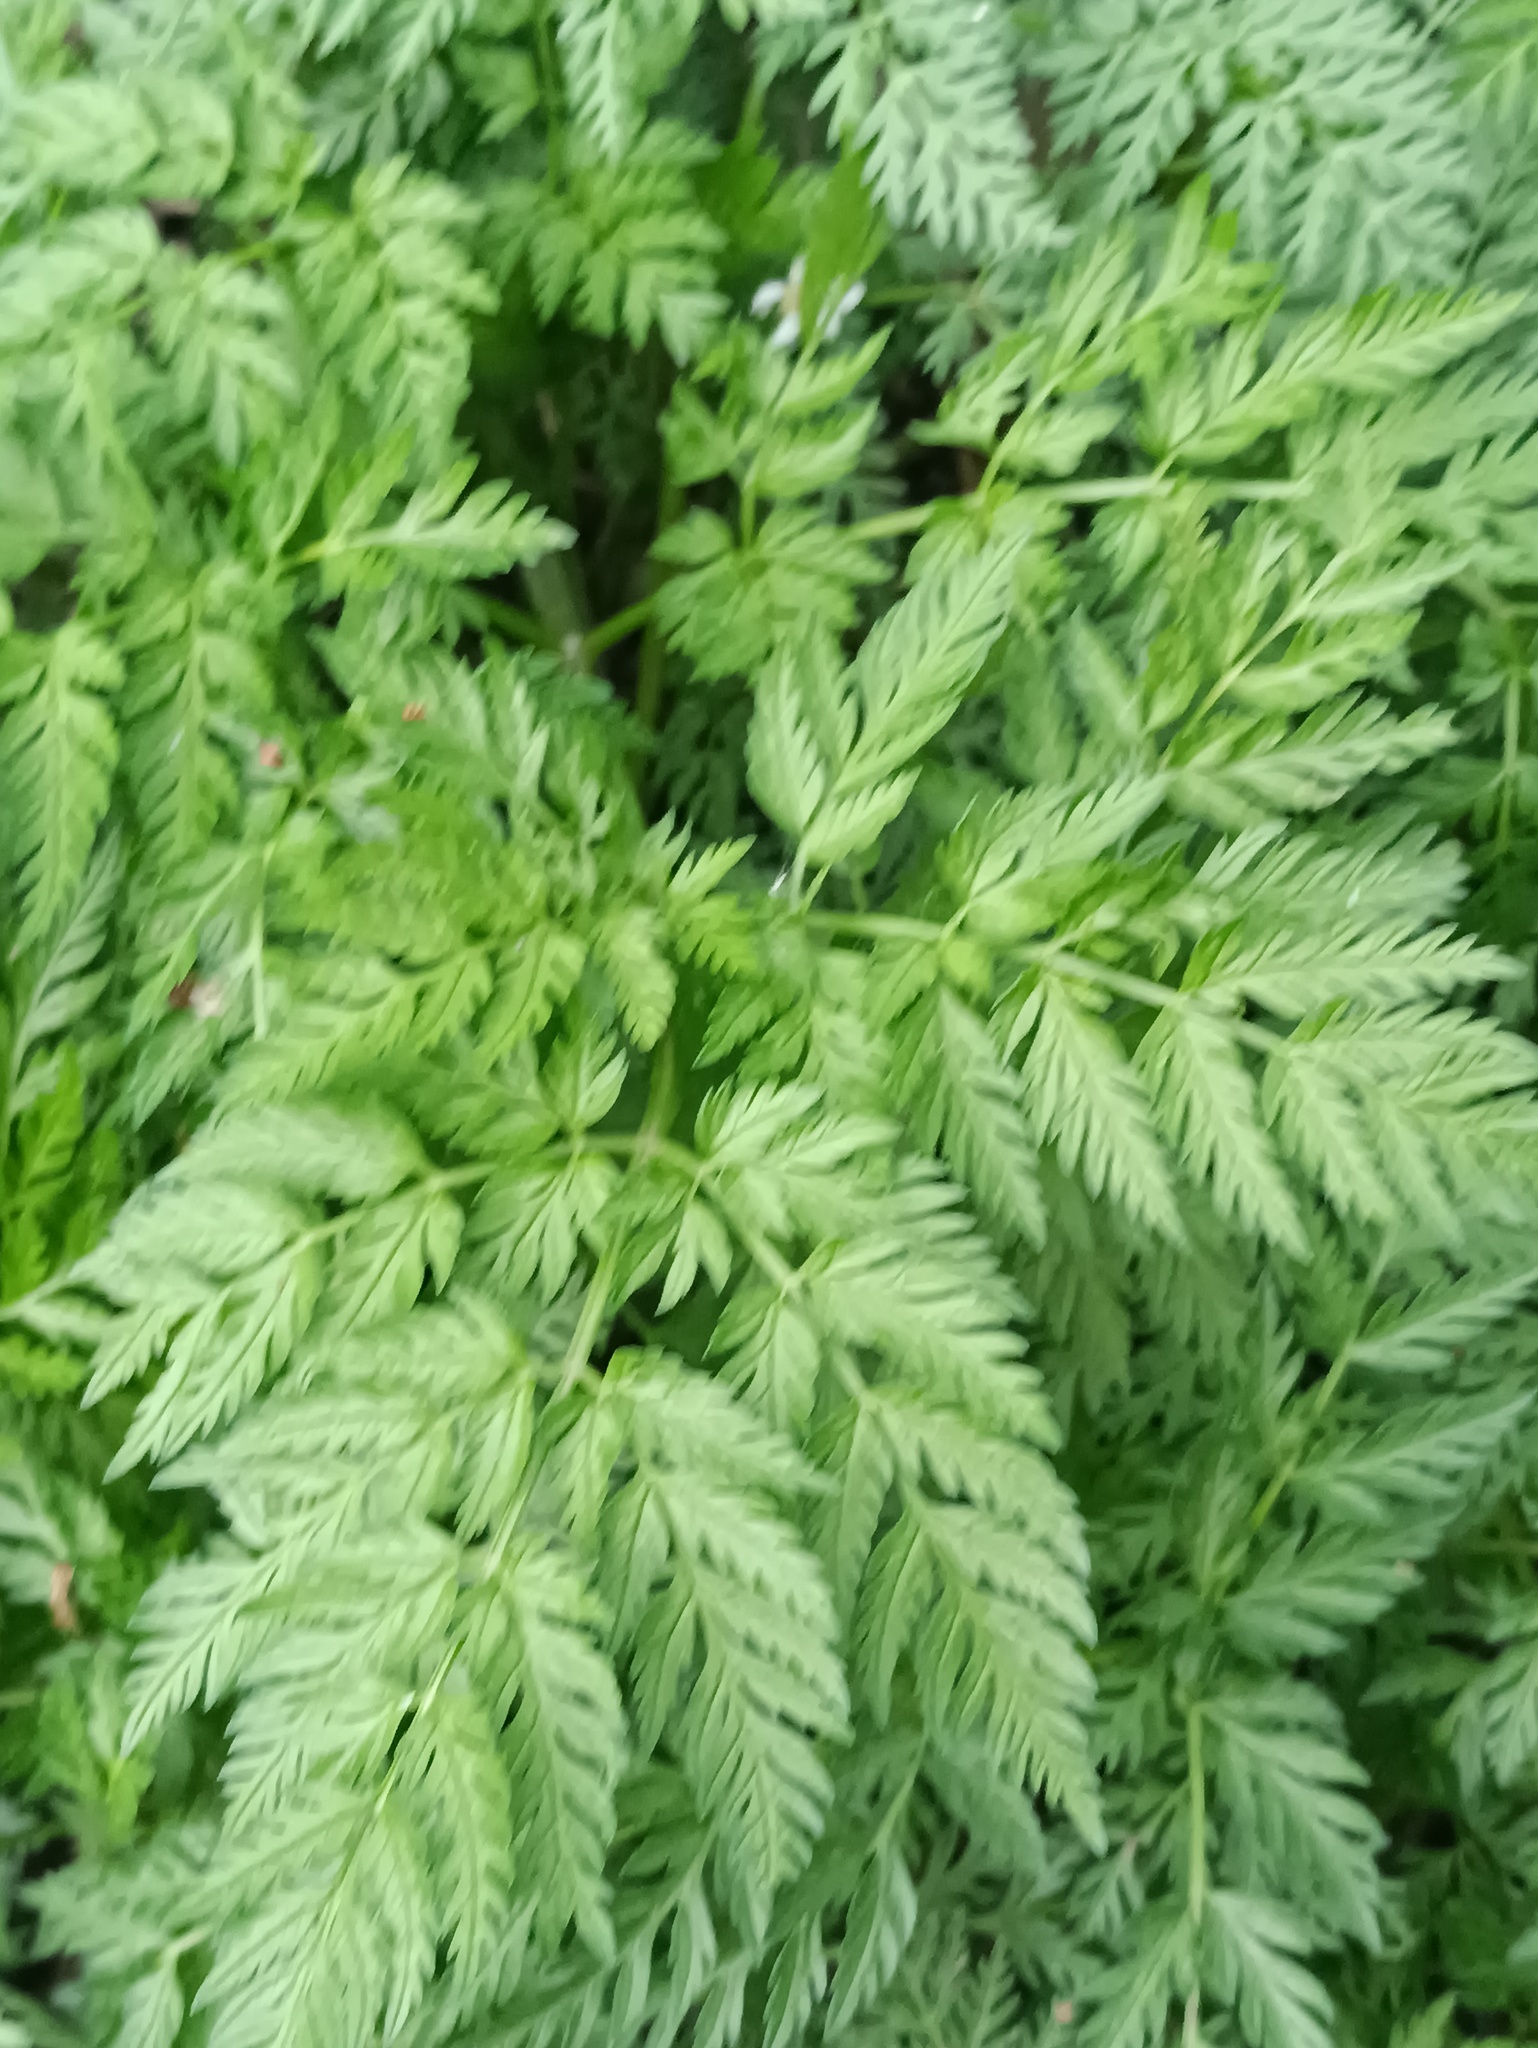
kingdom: Plantae
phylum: Tracheophyta
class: Magnoliopsida
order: Apiales
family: Apiaceae
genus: Anthriscus
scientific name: Anthriscus sylvestris
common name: Cow parsley
